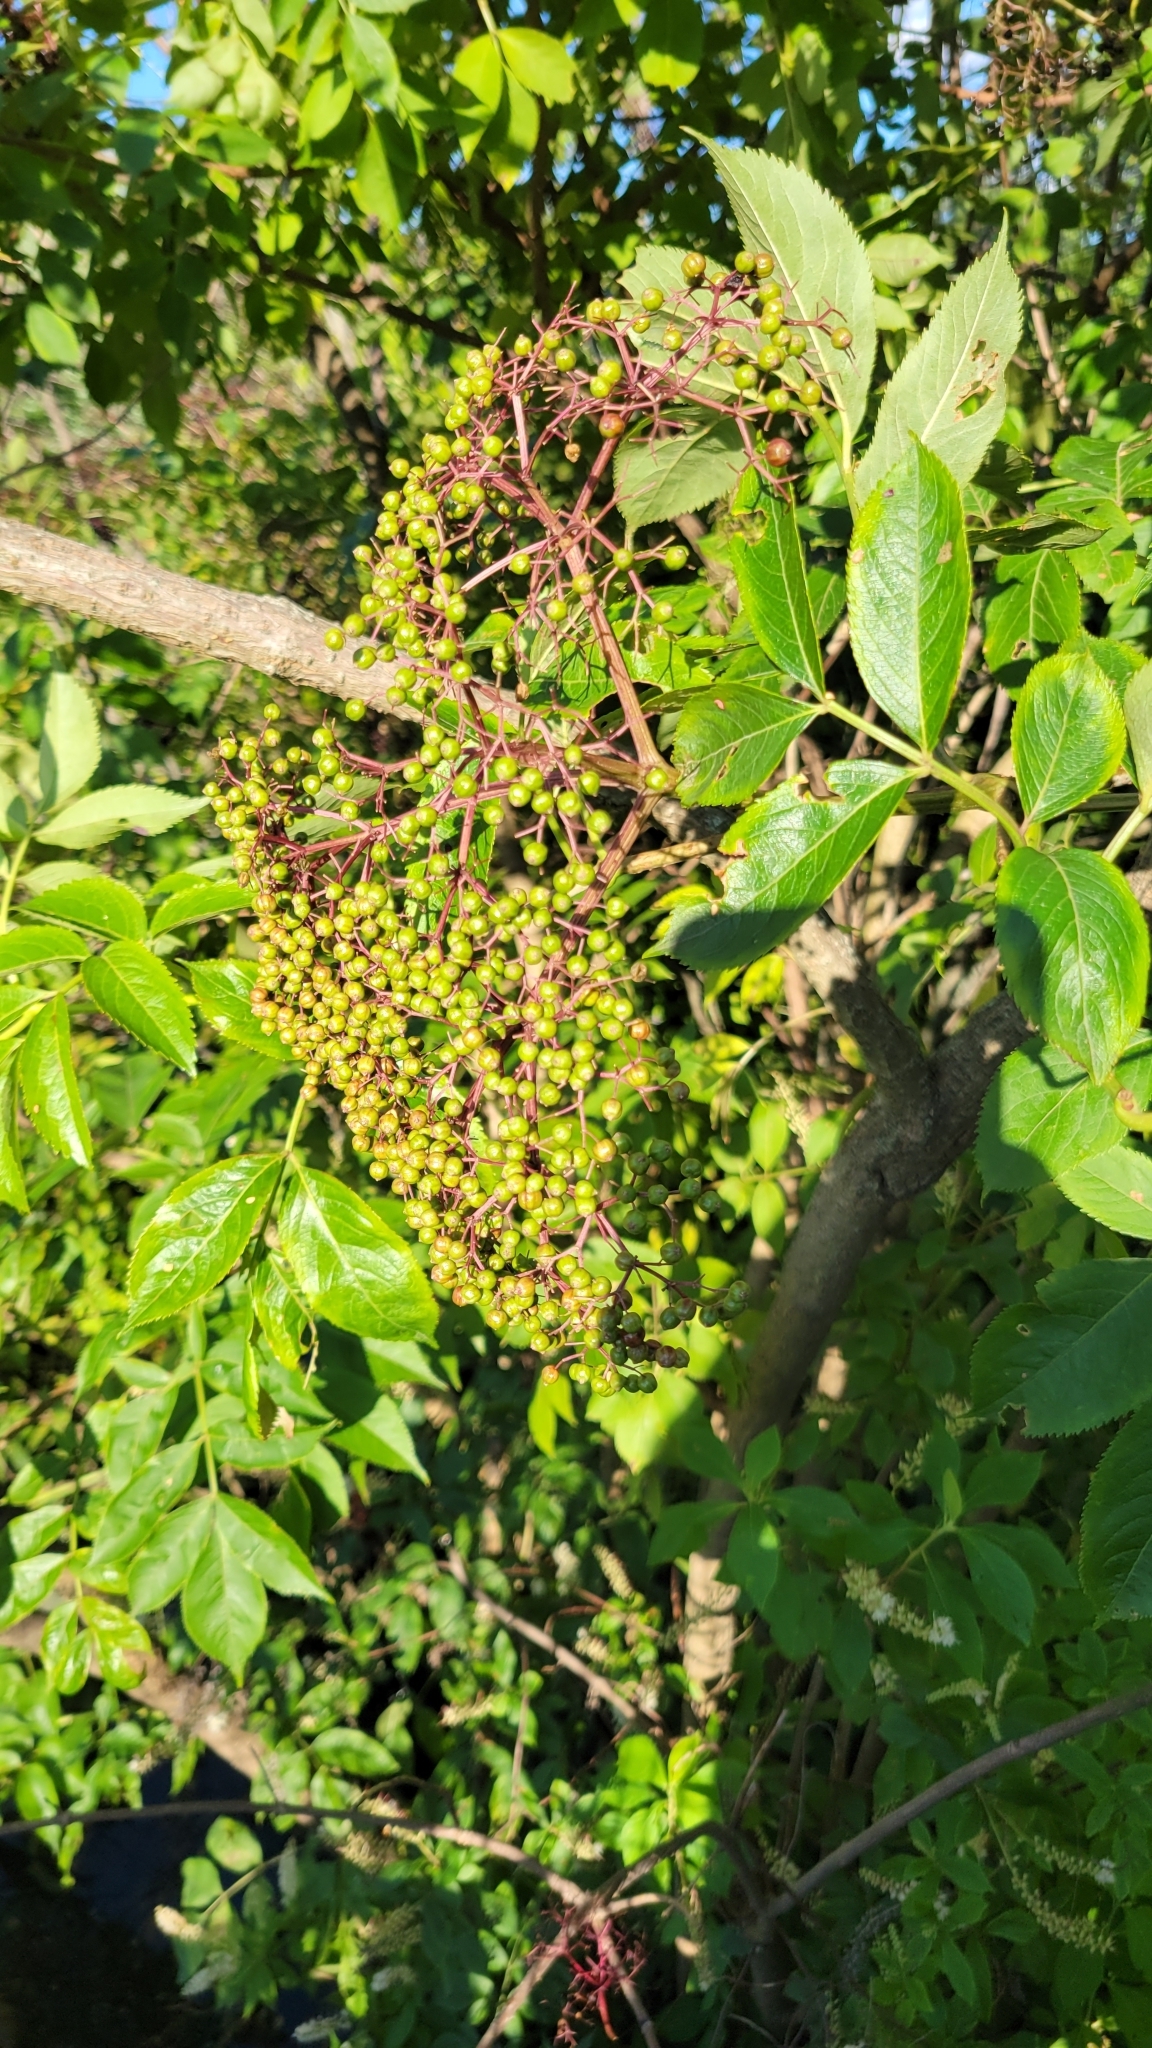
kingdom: Plantae
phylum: Tracheophyta
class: Magnoliopsida
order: Dipsacales
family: Viburnaceae
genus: Sambucus
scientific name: Sambucus canadensis
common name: American elder
